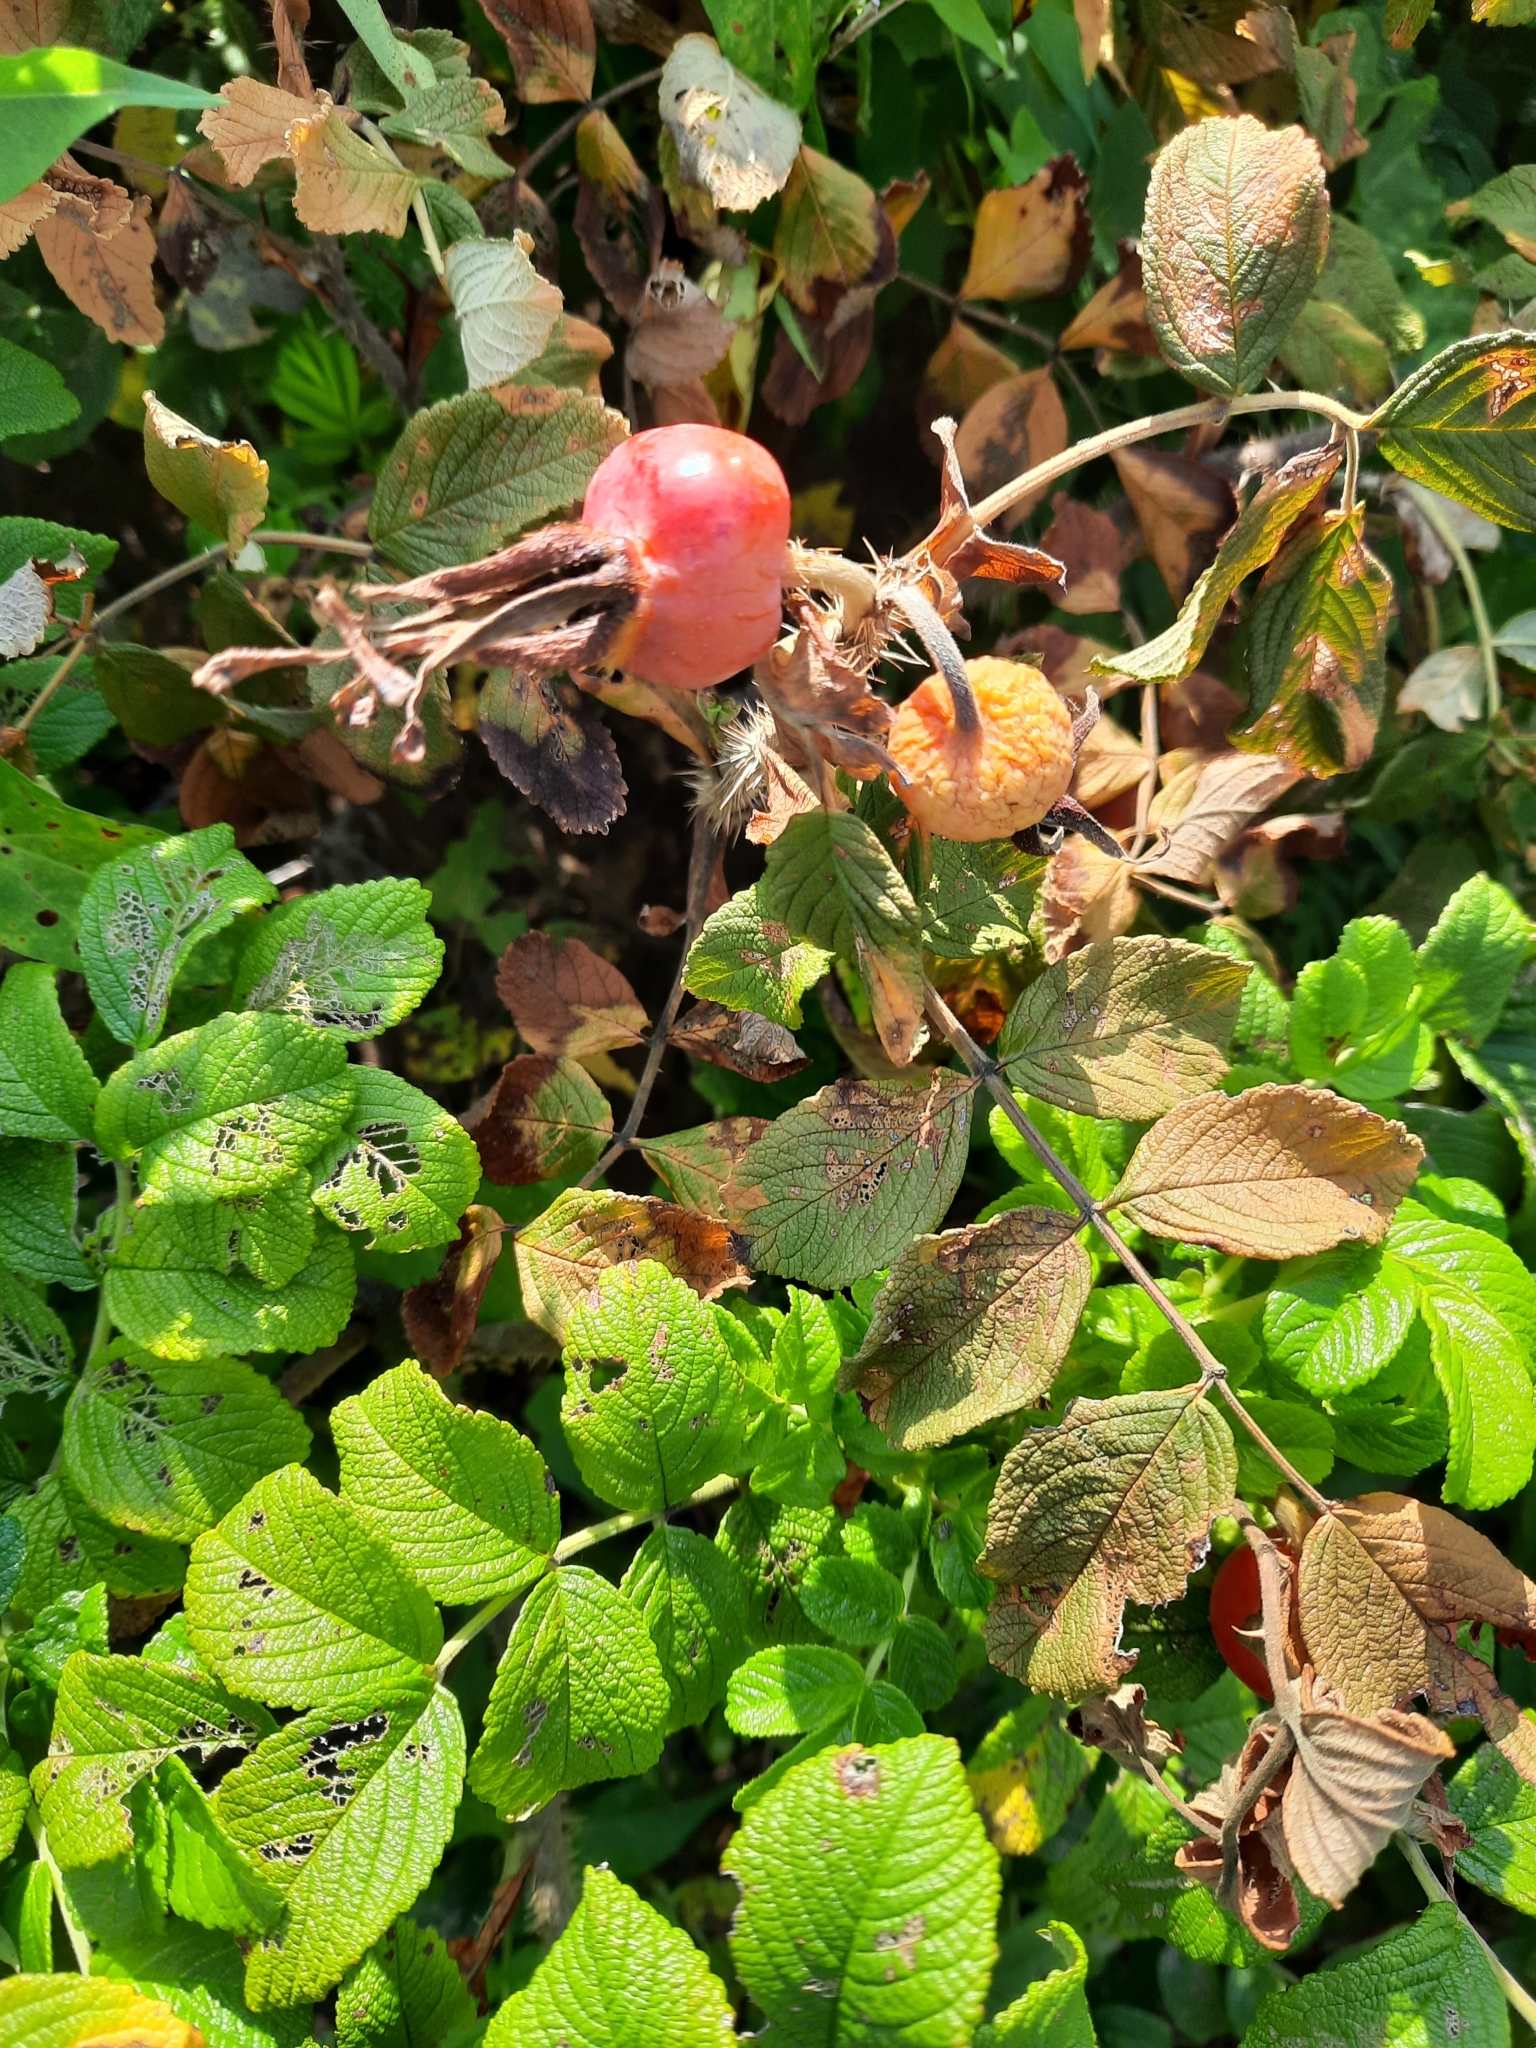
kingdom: Plantae
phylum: Tracheophyta
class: Magnoliopsida
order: Rosales
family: Rosaceae
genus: Rosa
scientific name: Rosa rugosa
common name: Japanese rose
